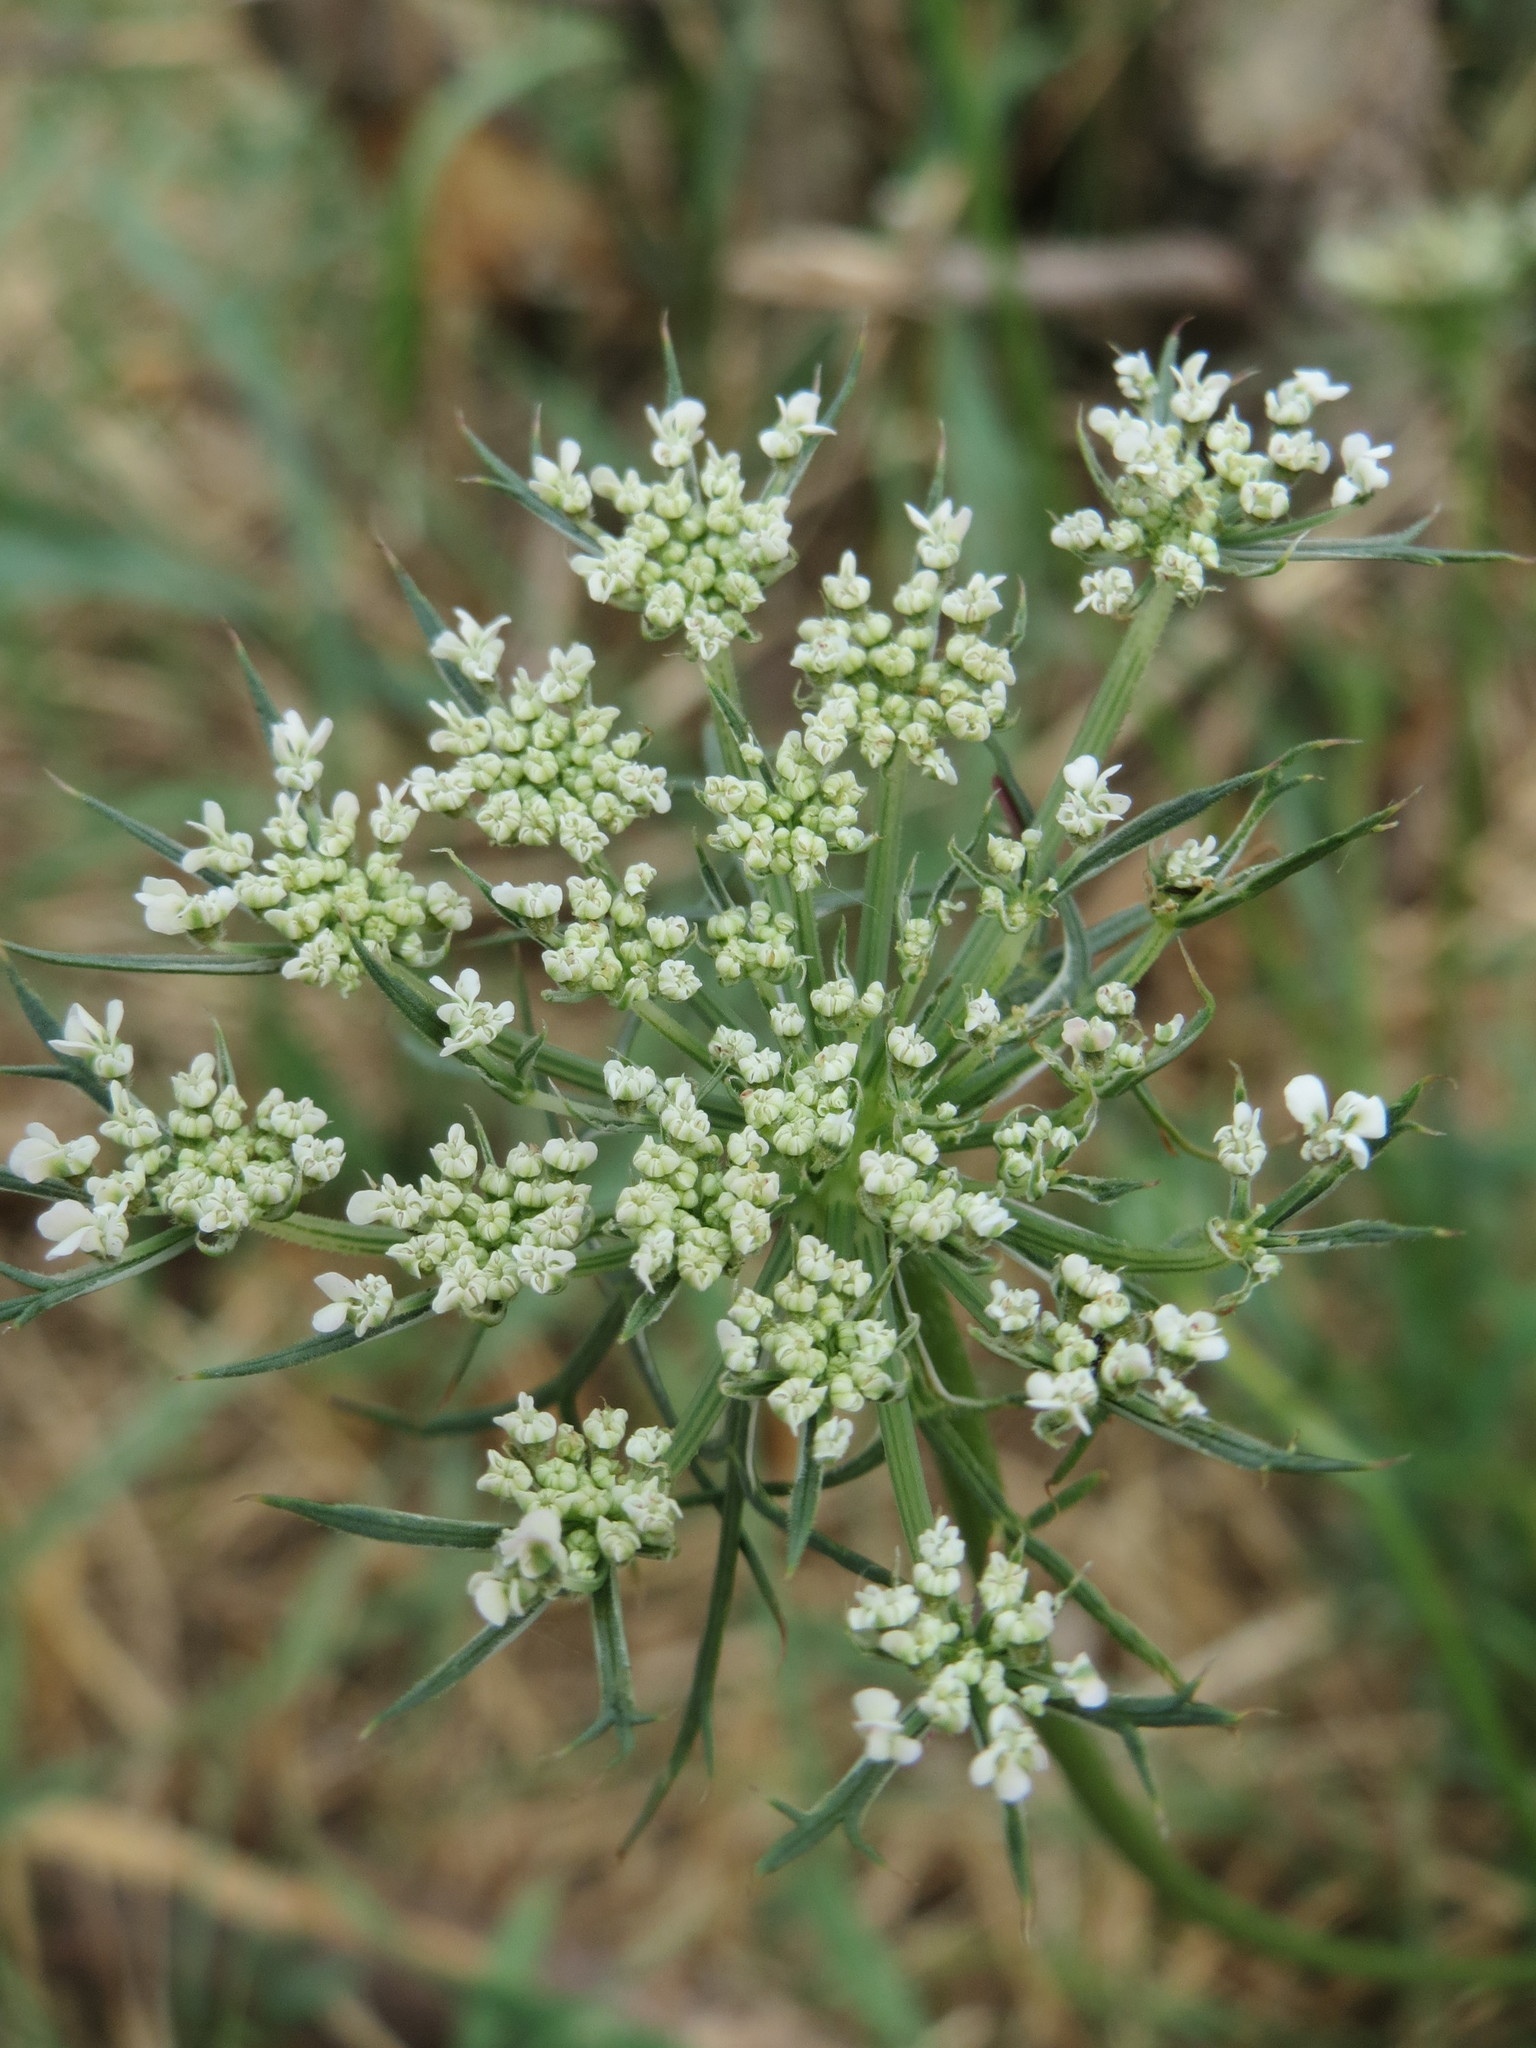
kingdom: Plantae
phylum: Tracheophyta
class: Magnoliopsida
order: Apiales
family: Apiaceae
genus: Daucus
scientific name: Daucus carota
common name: Wild carrot
